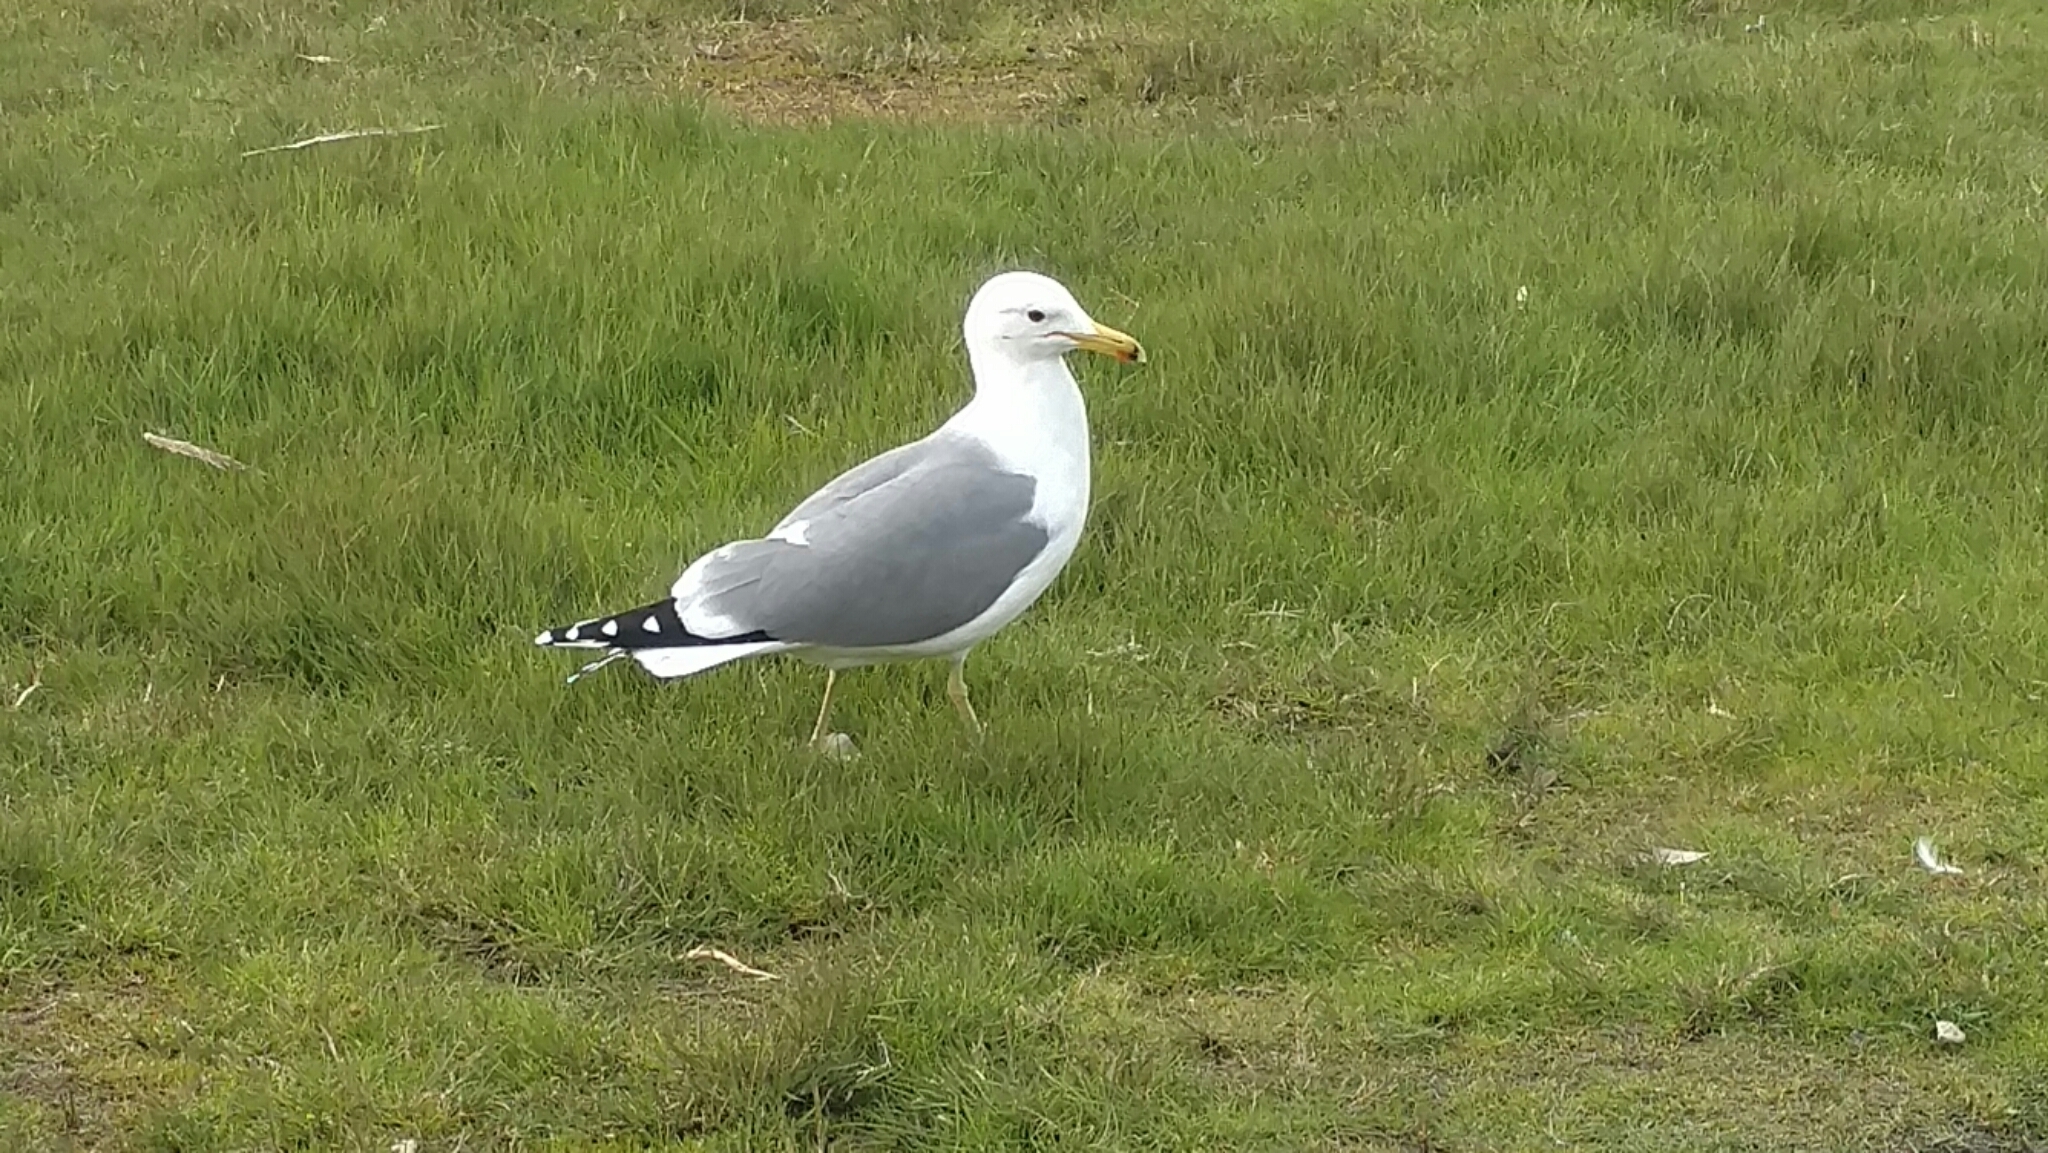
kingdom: Animalia
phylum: Chordata
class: Aves
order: Charadriiformes
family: Laridae
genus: Larus
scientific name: Larus californicus
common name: California gull
